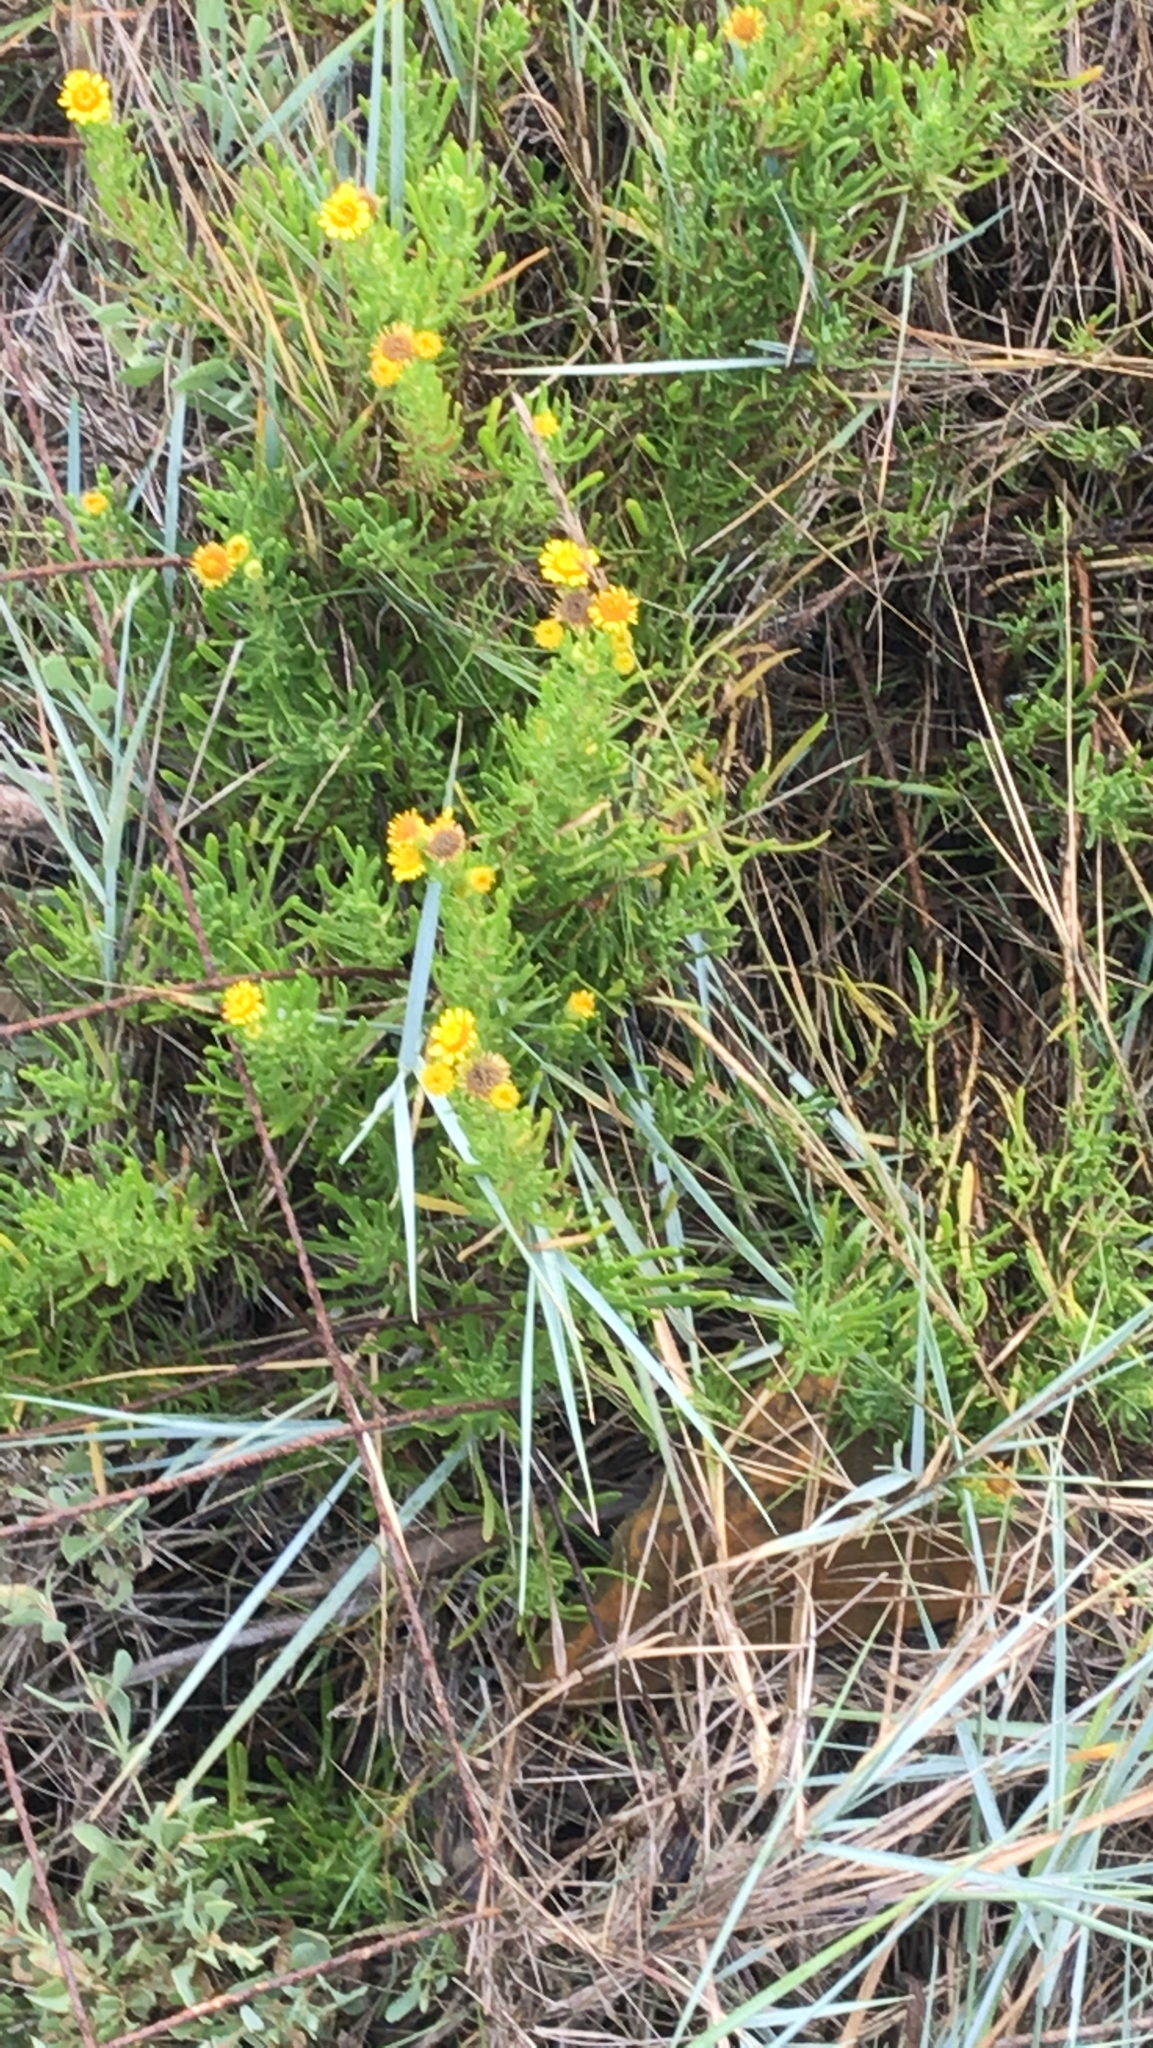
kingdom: Plantae
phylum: Tracheophyta
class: Magnoliopsida
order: Asterales
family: Asteraceae
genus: Limbarda
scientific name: Limbarda crithmoides
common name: Golden samphire
